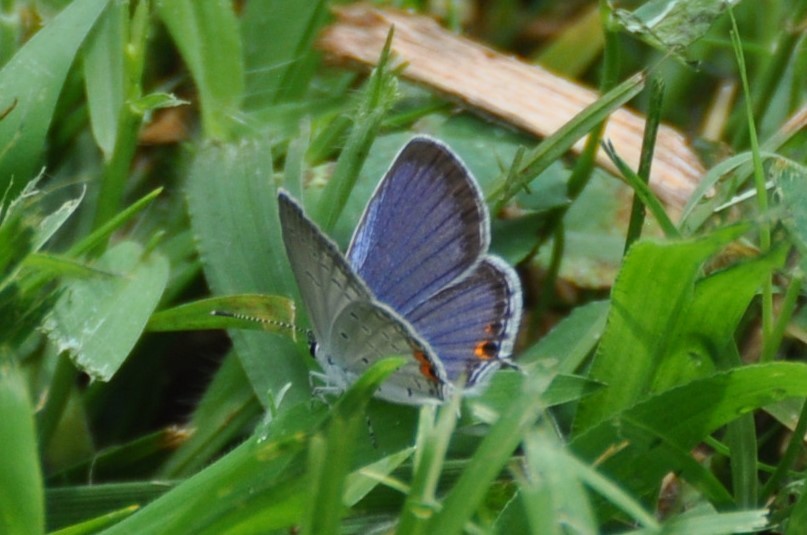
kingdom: Animalia
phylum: Arthropoda
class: Insecta
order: Lepidoptera
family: Lycaenidae
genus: Elkalyce
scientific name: Elkalyce comyntas
